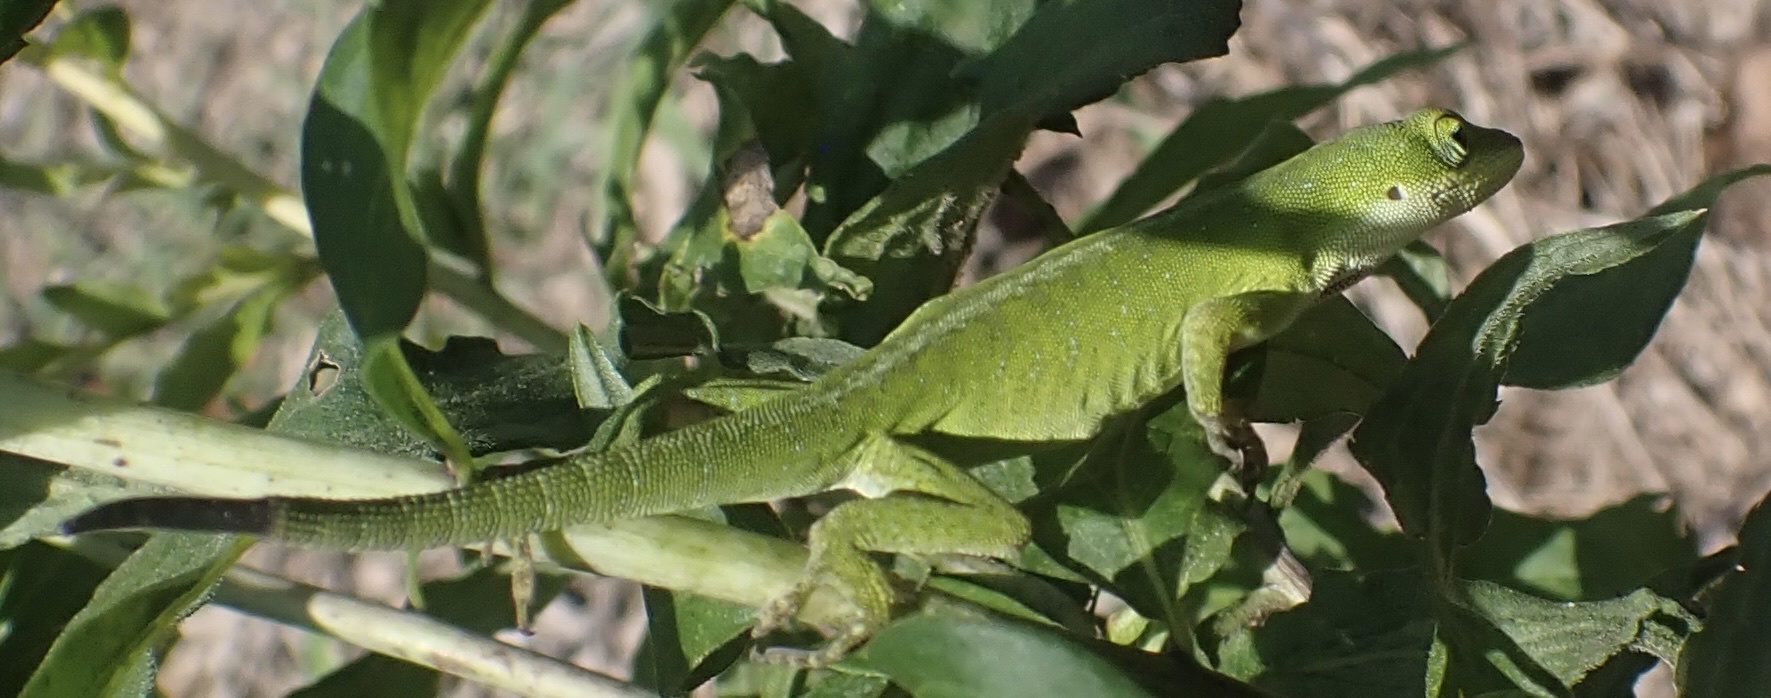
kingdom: Animalia
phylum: Chordata
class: Squamata
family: Dactyloidae
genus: Anolis
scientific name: Anolis carolinensis
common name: Green anole
